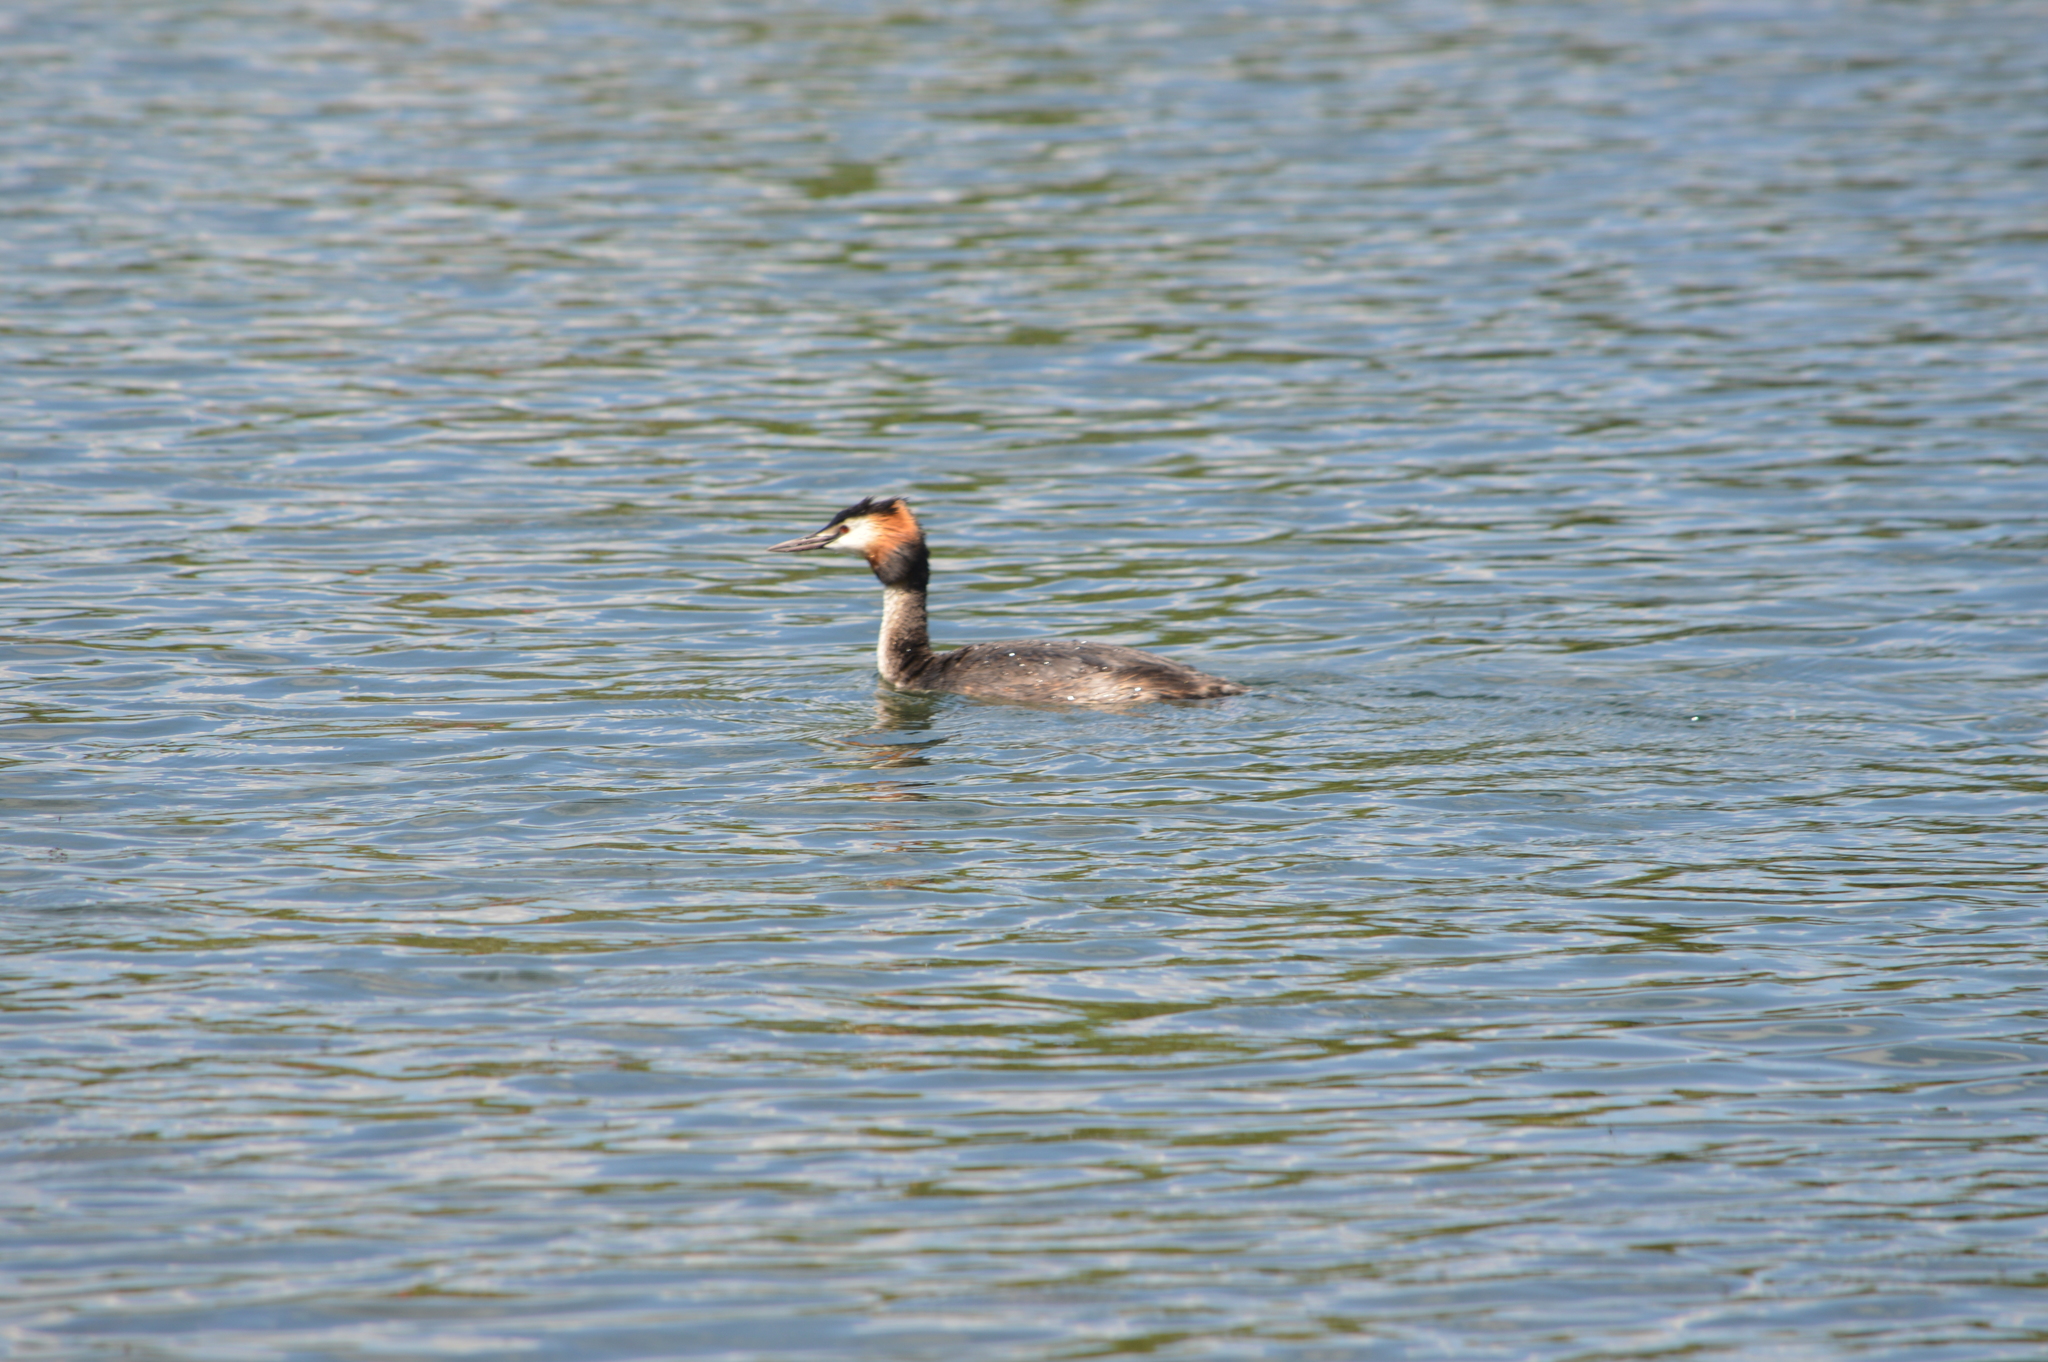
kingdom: Animalia
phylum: Chordata
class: Aves
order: Podicipediformes
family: Podicipedidae
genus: Podiceps
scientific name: Podiceps cristatus
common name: Great crested grebe
